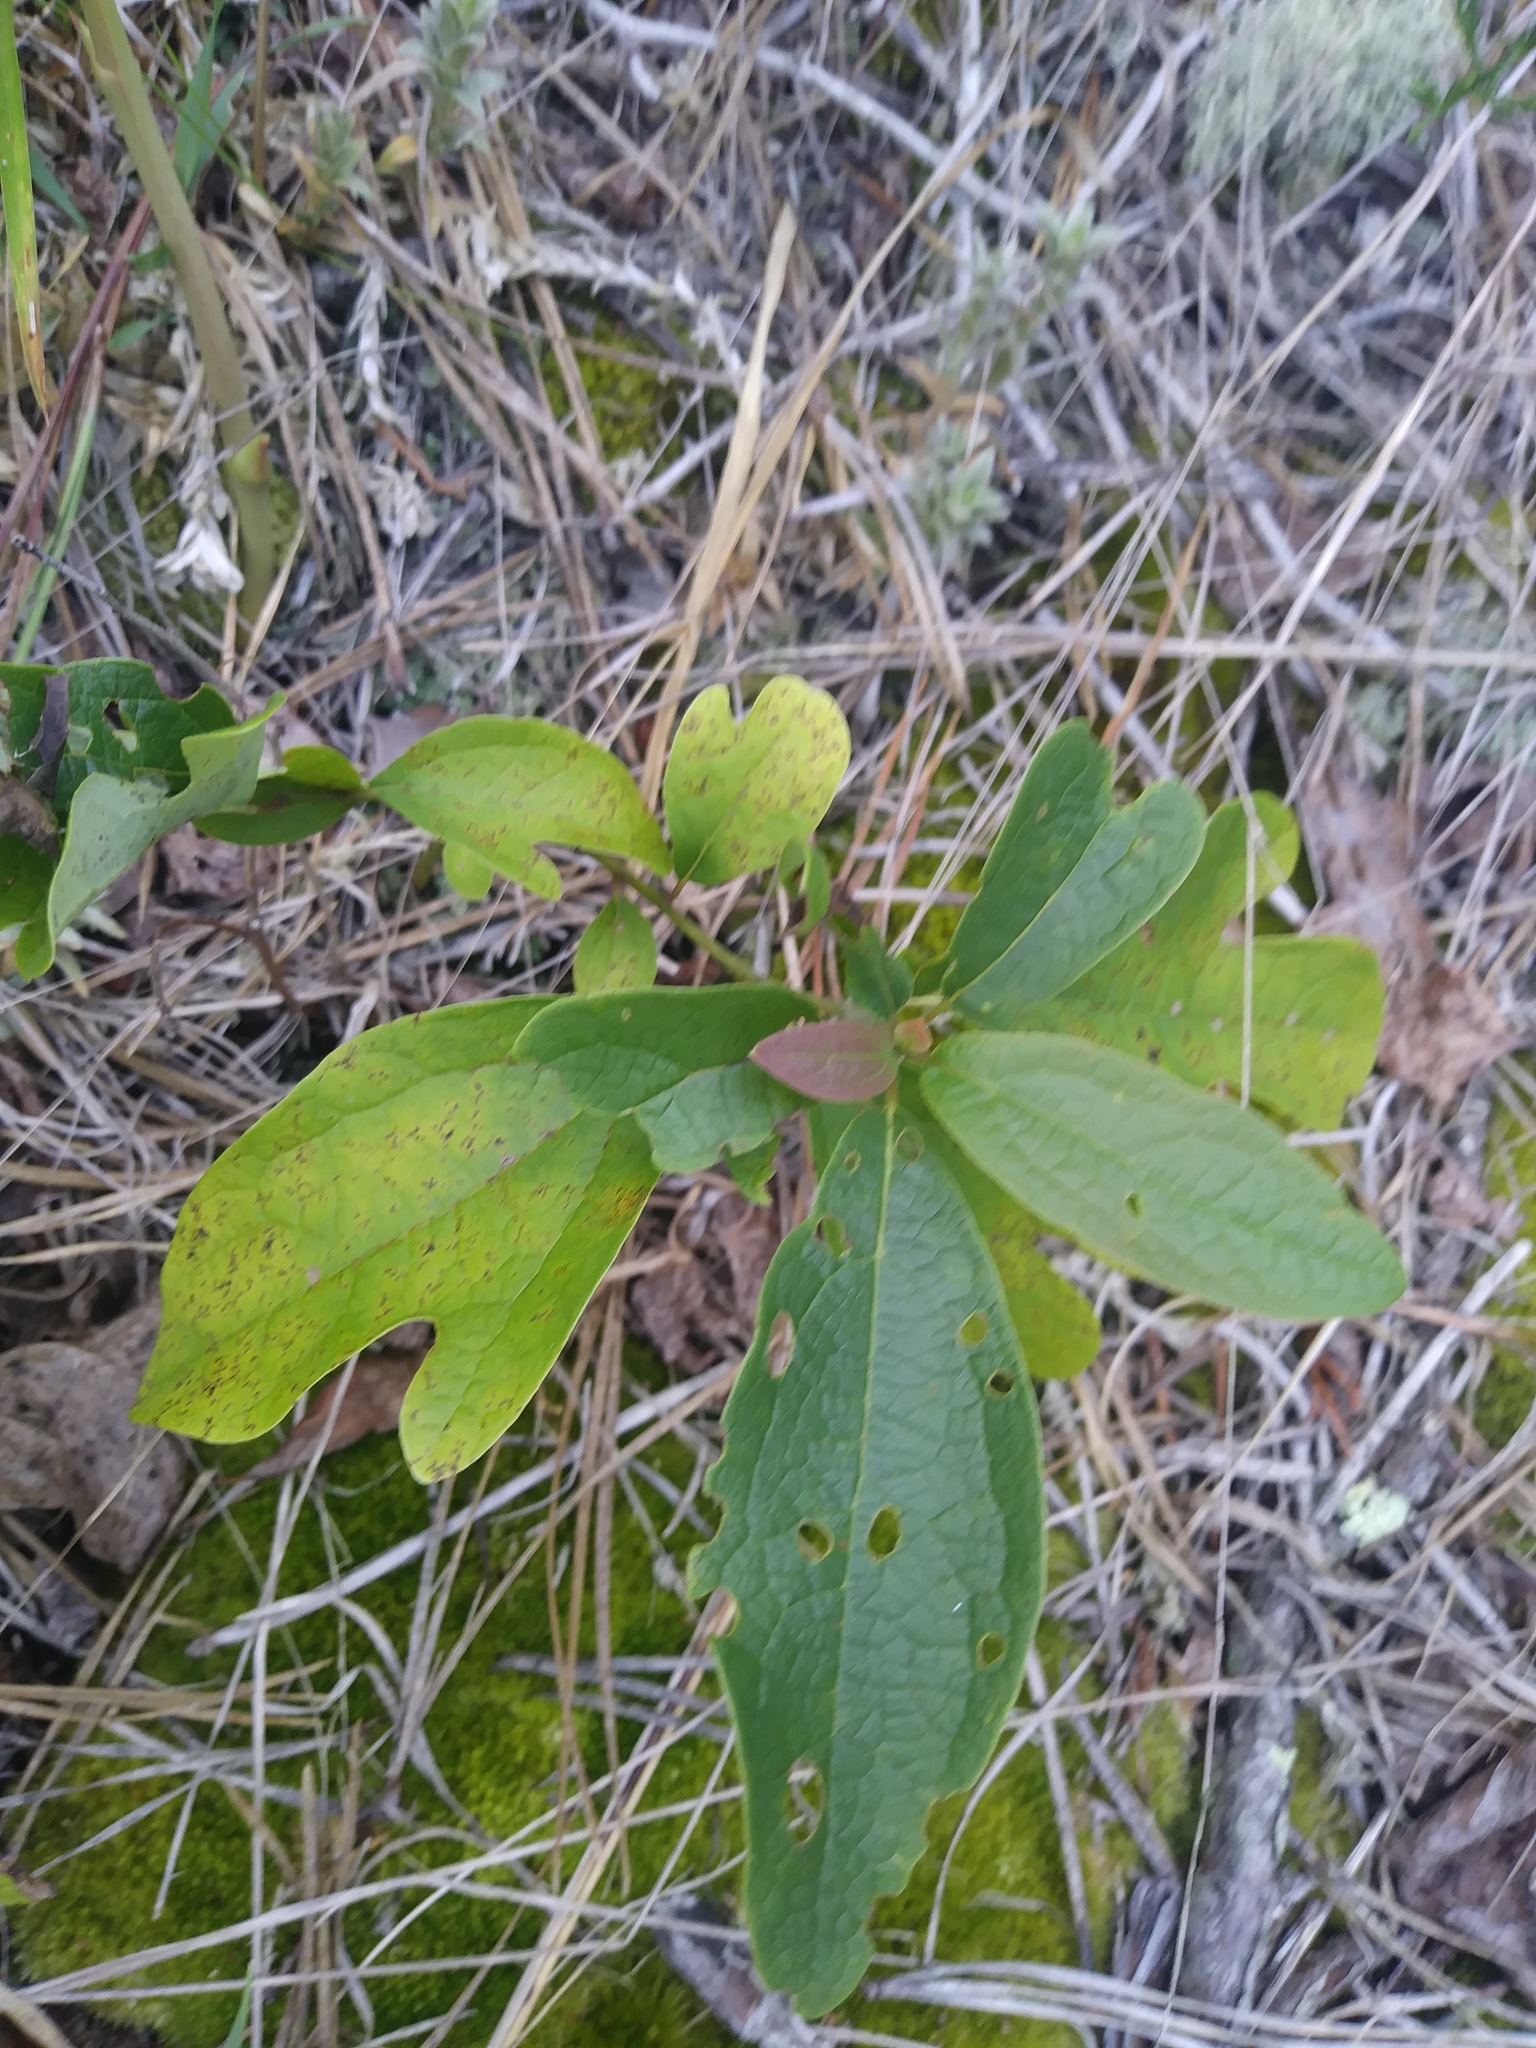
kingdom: Plantae
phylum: Tracheophyta
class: Magnoliopsida
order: Laurales
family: Lauraceae
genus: Sassafras
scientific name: Sassafras albidum
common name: Sassafras
